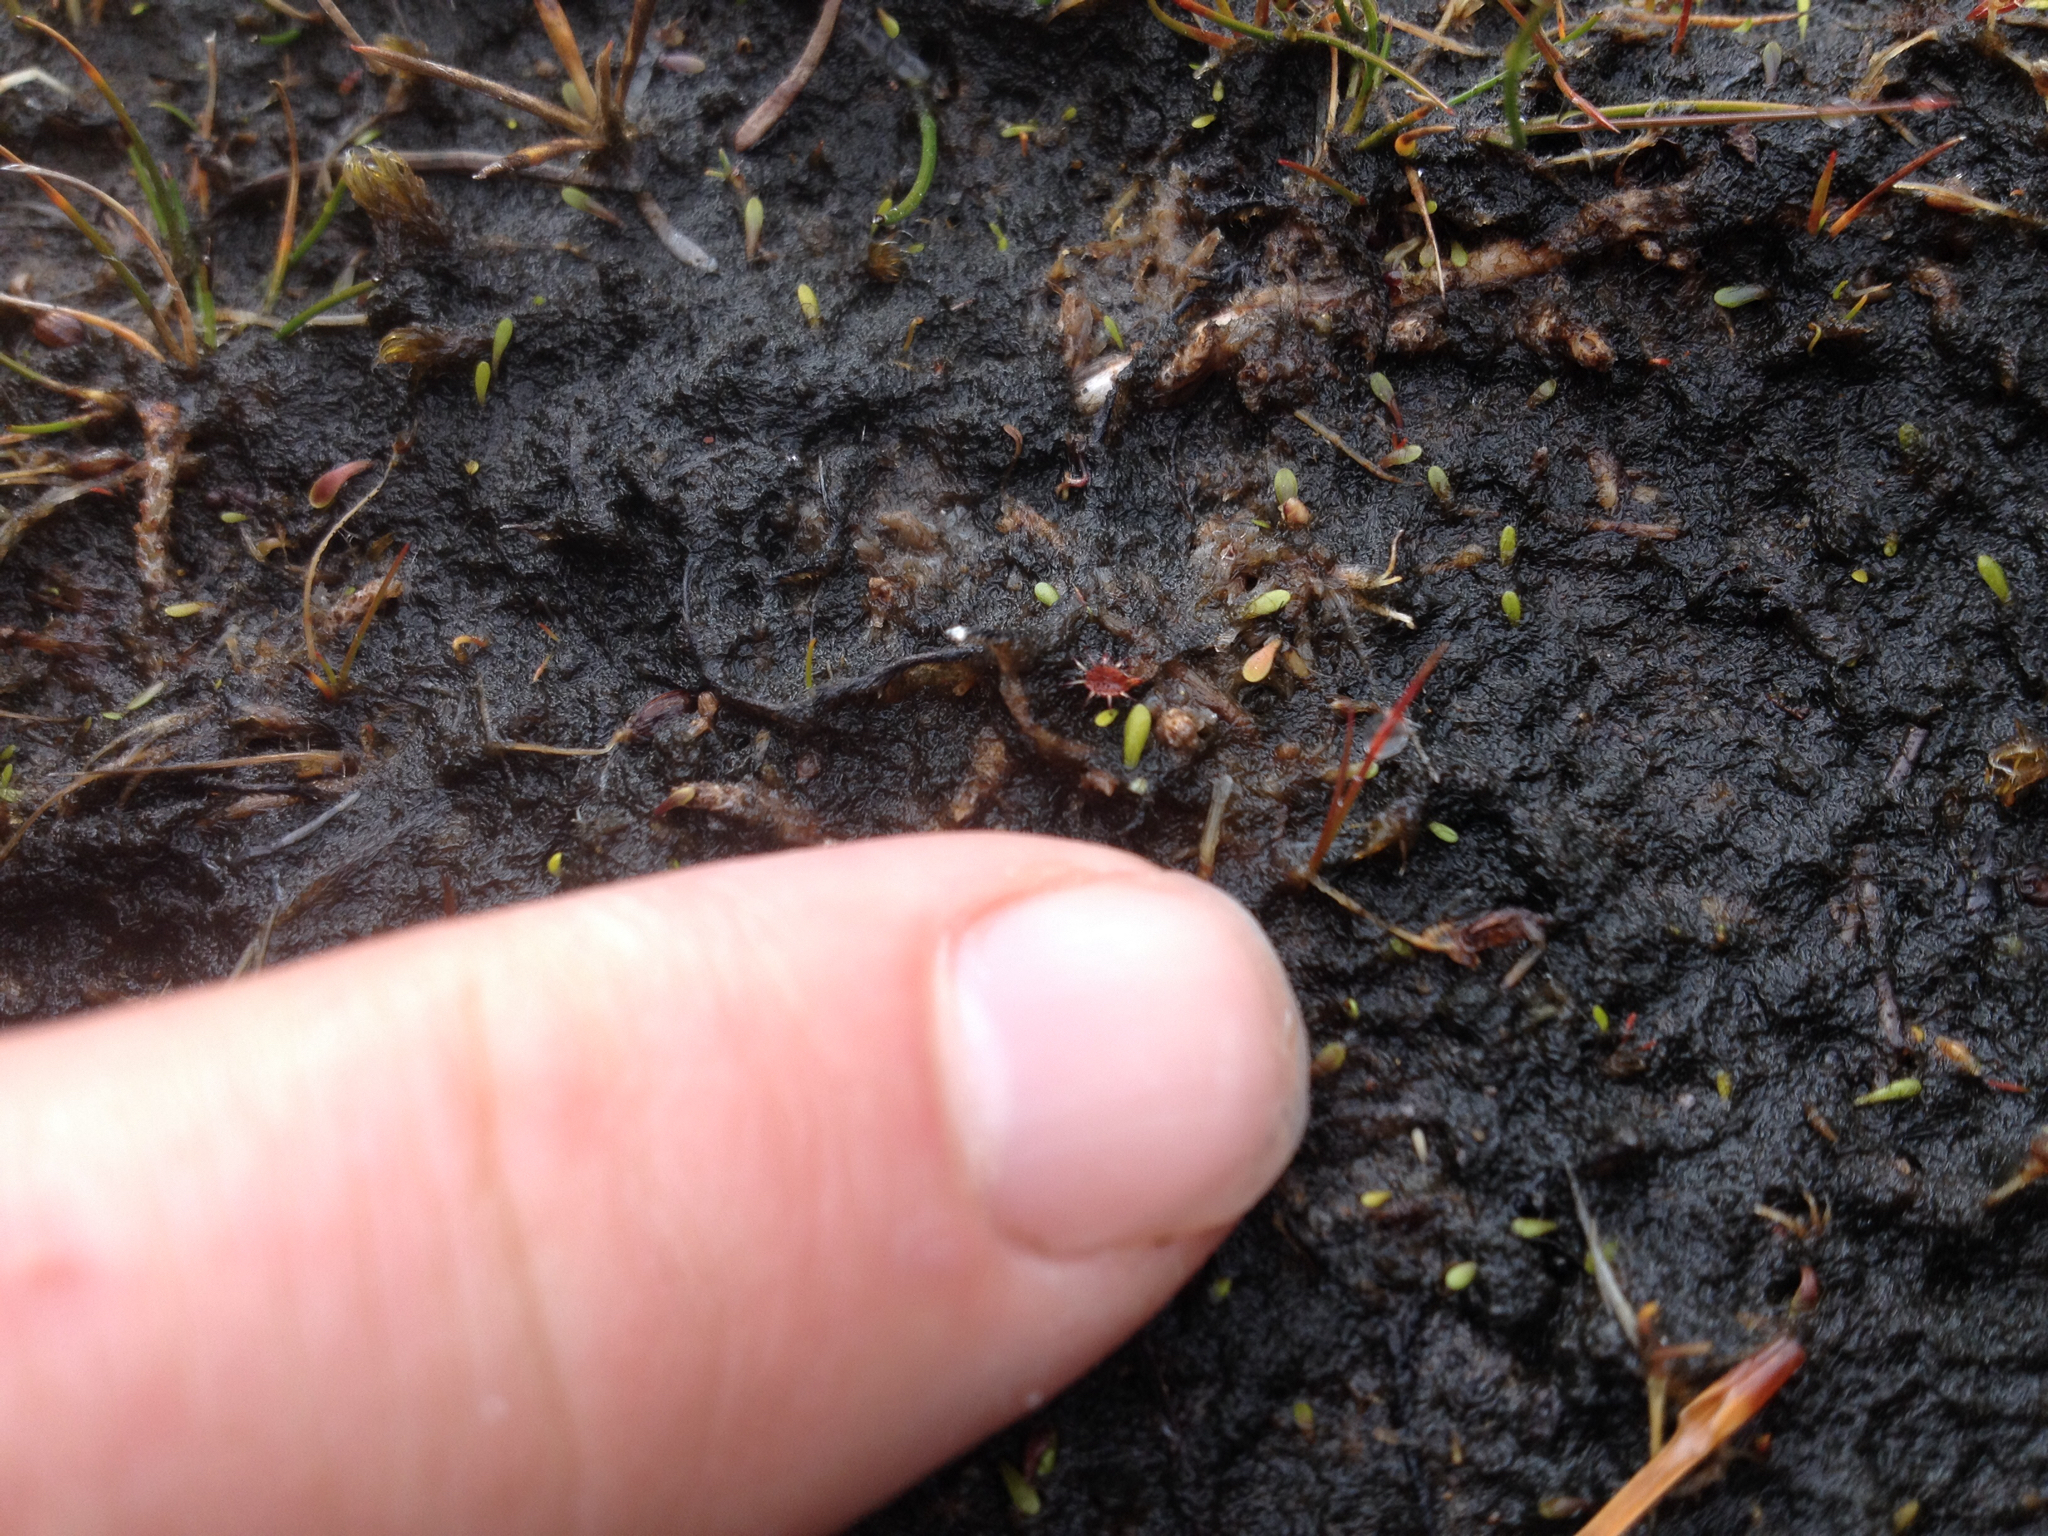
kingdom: Plantae
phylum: Tracheophyta
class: Magnoliopsida
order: Caryophyllales
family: Droseraceae
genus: Drosera
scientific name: Drosera spatulata
